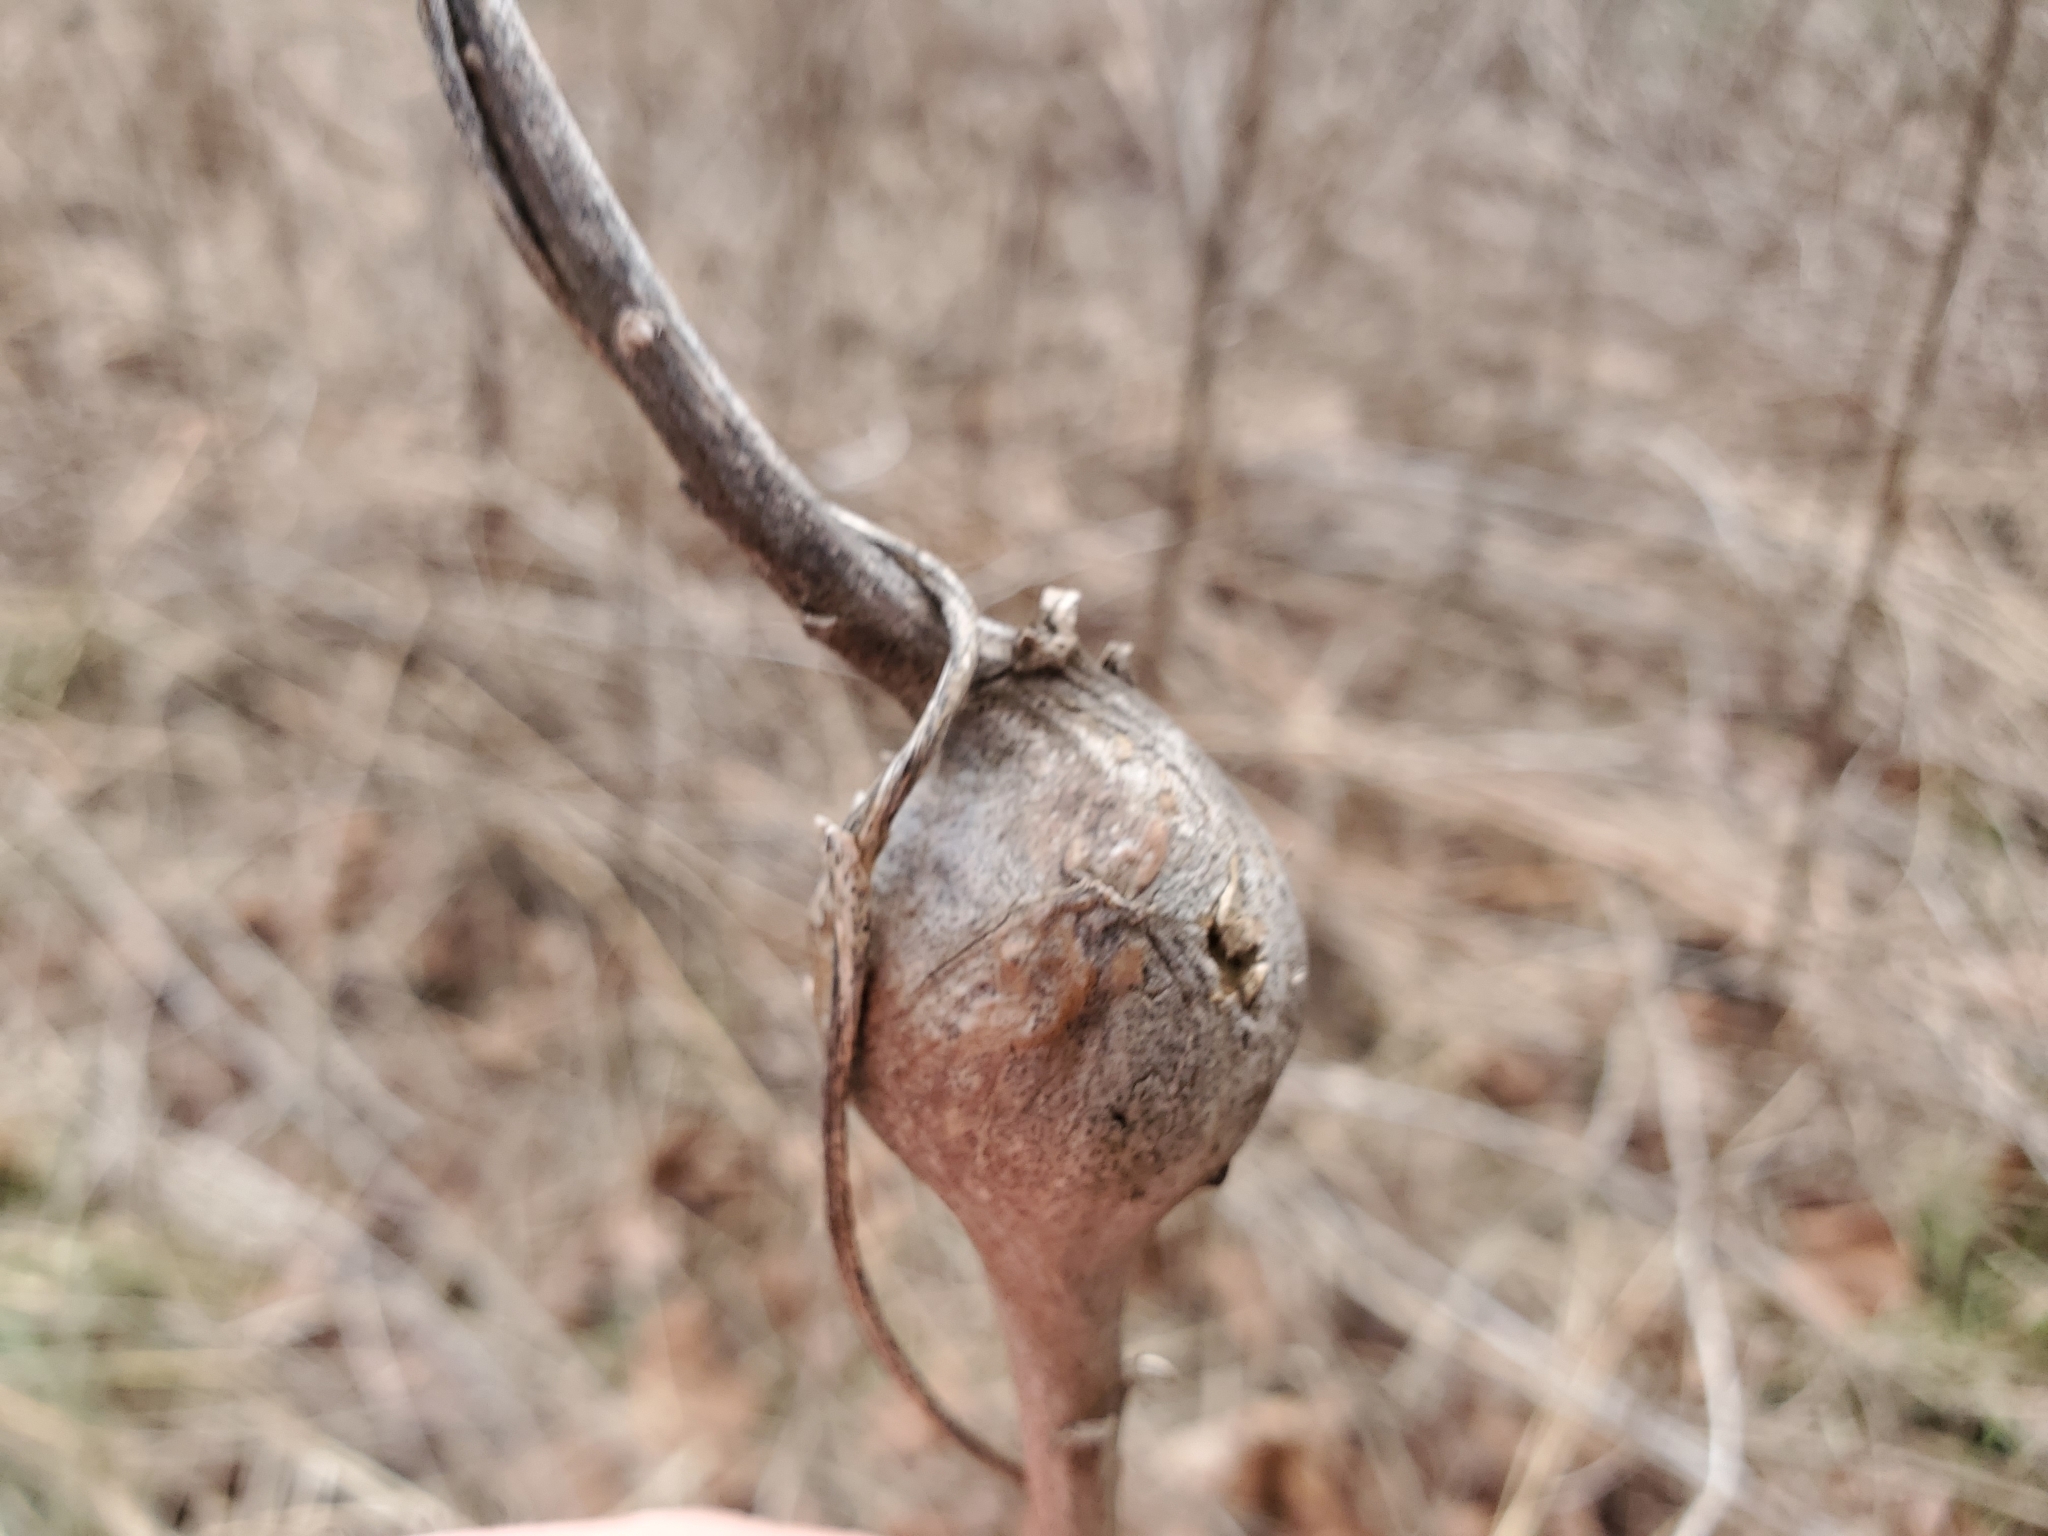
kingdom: Animalia
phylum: Arthropoda
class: Insecta
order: Diptera
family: Tephritidae
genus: Eurosta
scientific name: Eurosta solidaginis
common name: Goldenrod gall fly
